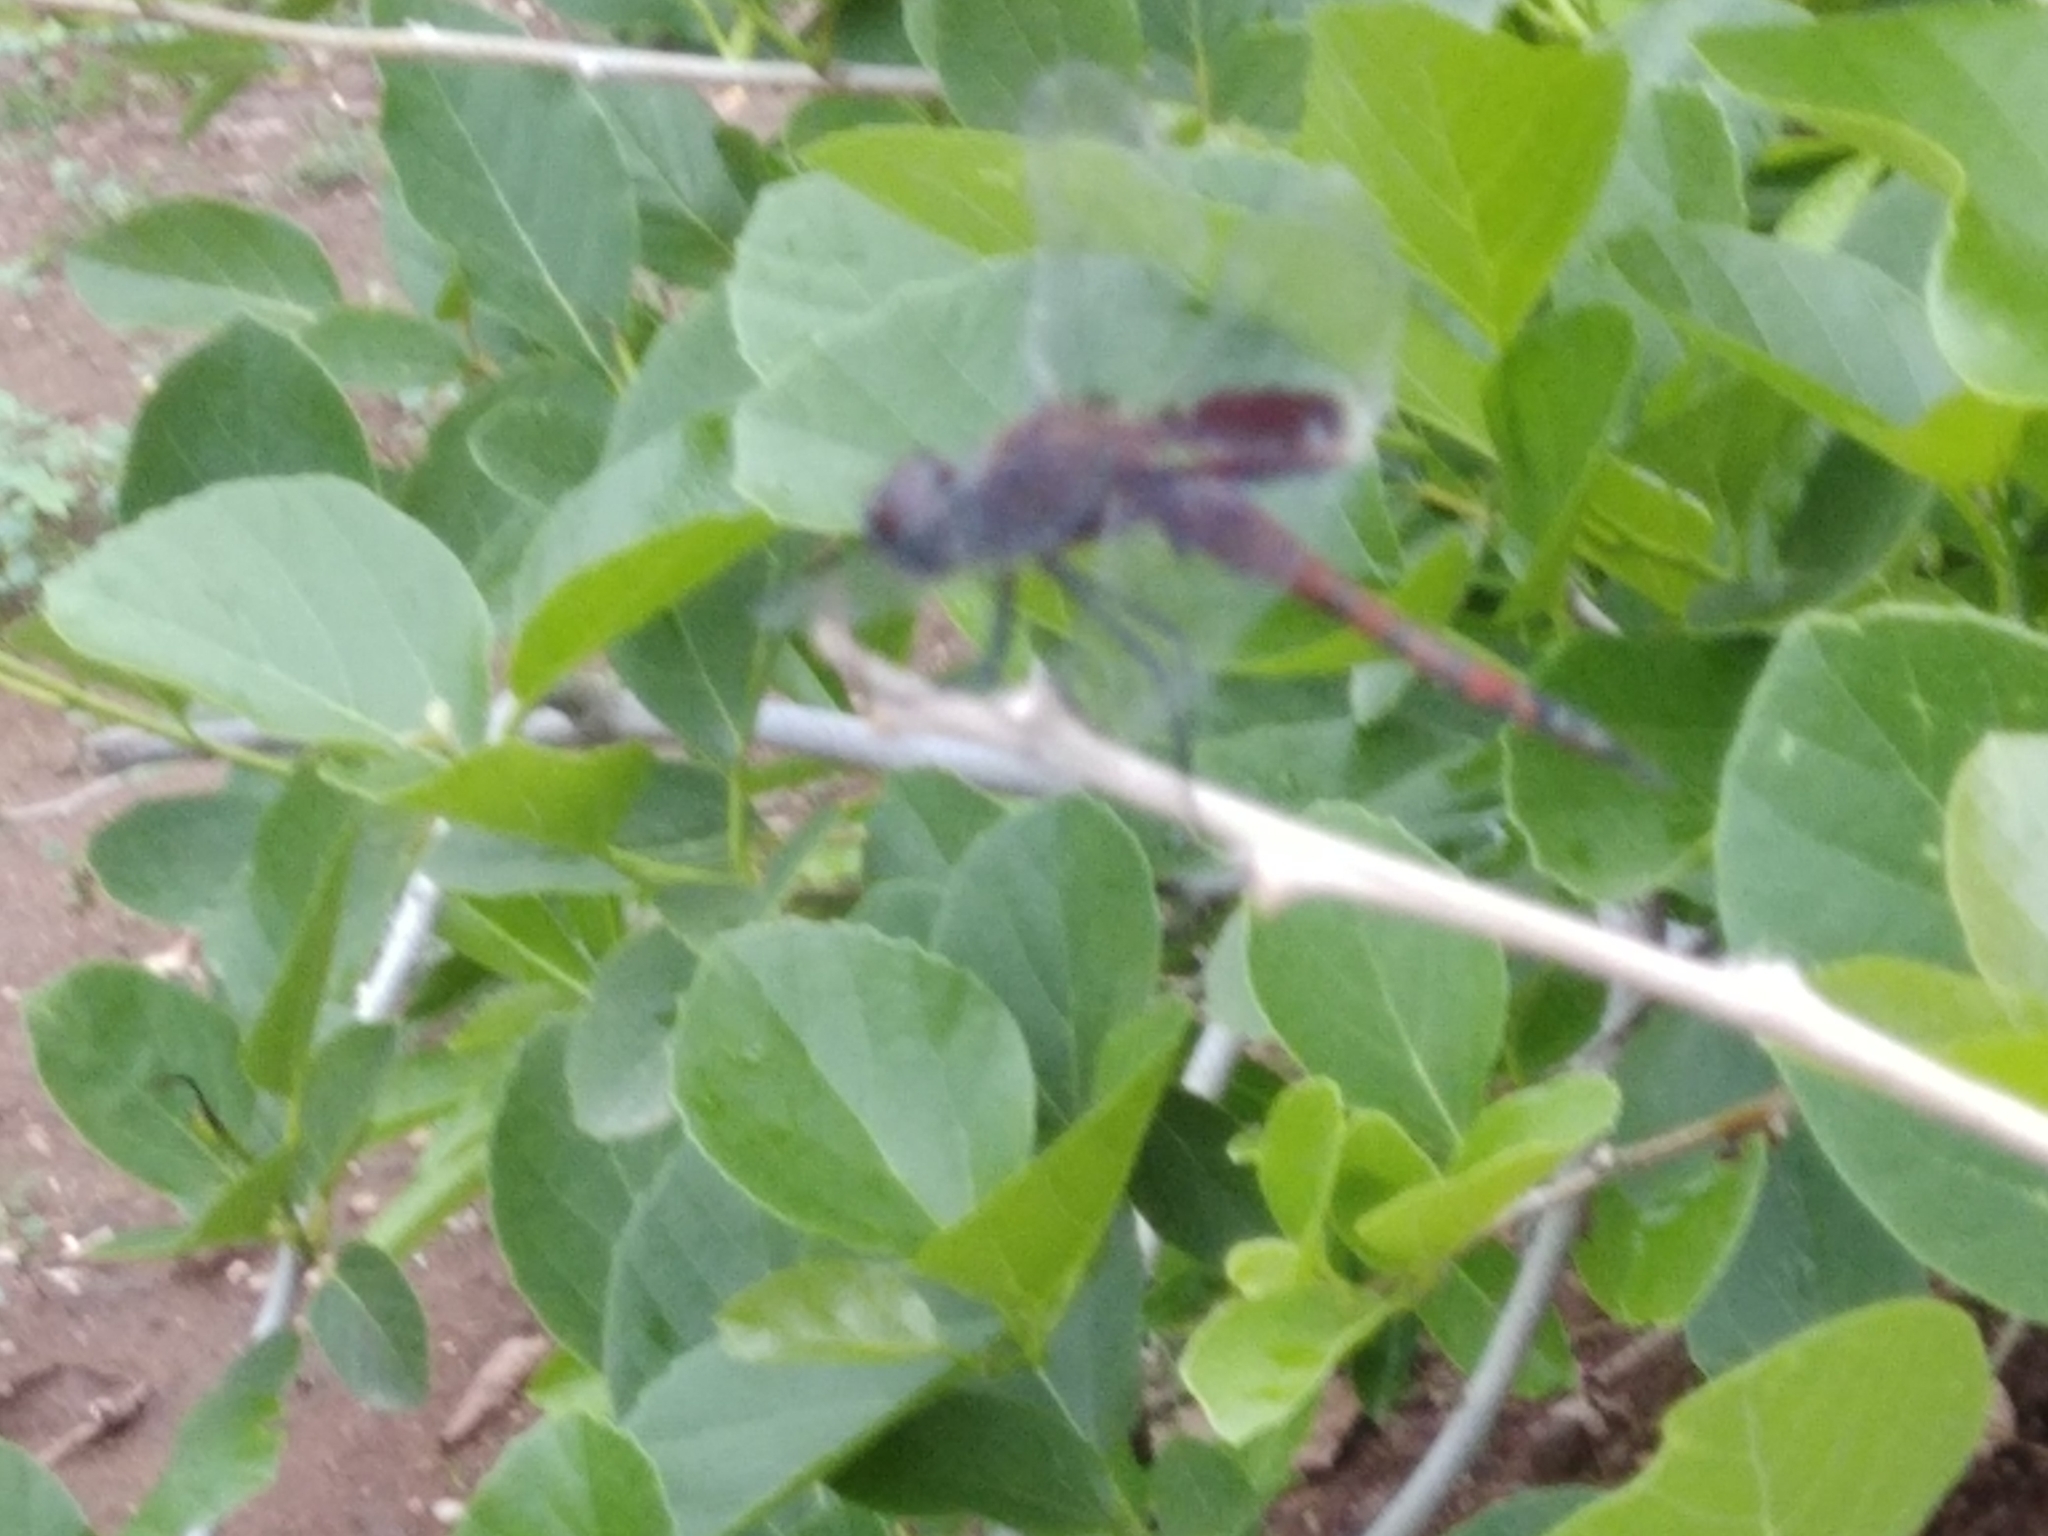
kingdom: Animalia
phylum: Arthropoda
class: Insecta
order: Odonata
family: Libellulidae
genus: Tramea
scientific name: Tramea limbata
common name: Ferruginous glider
